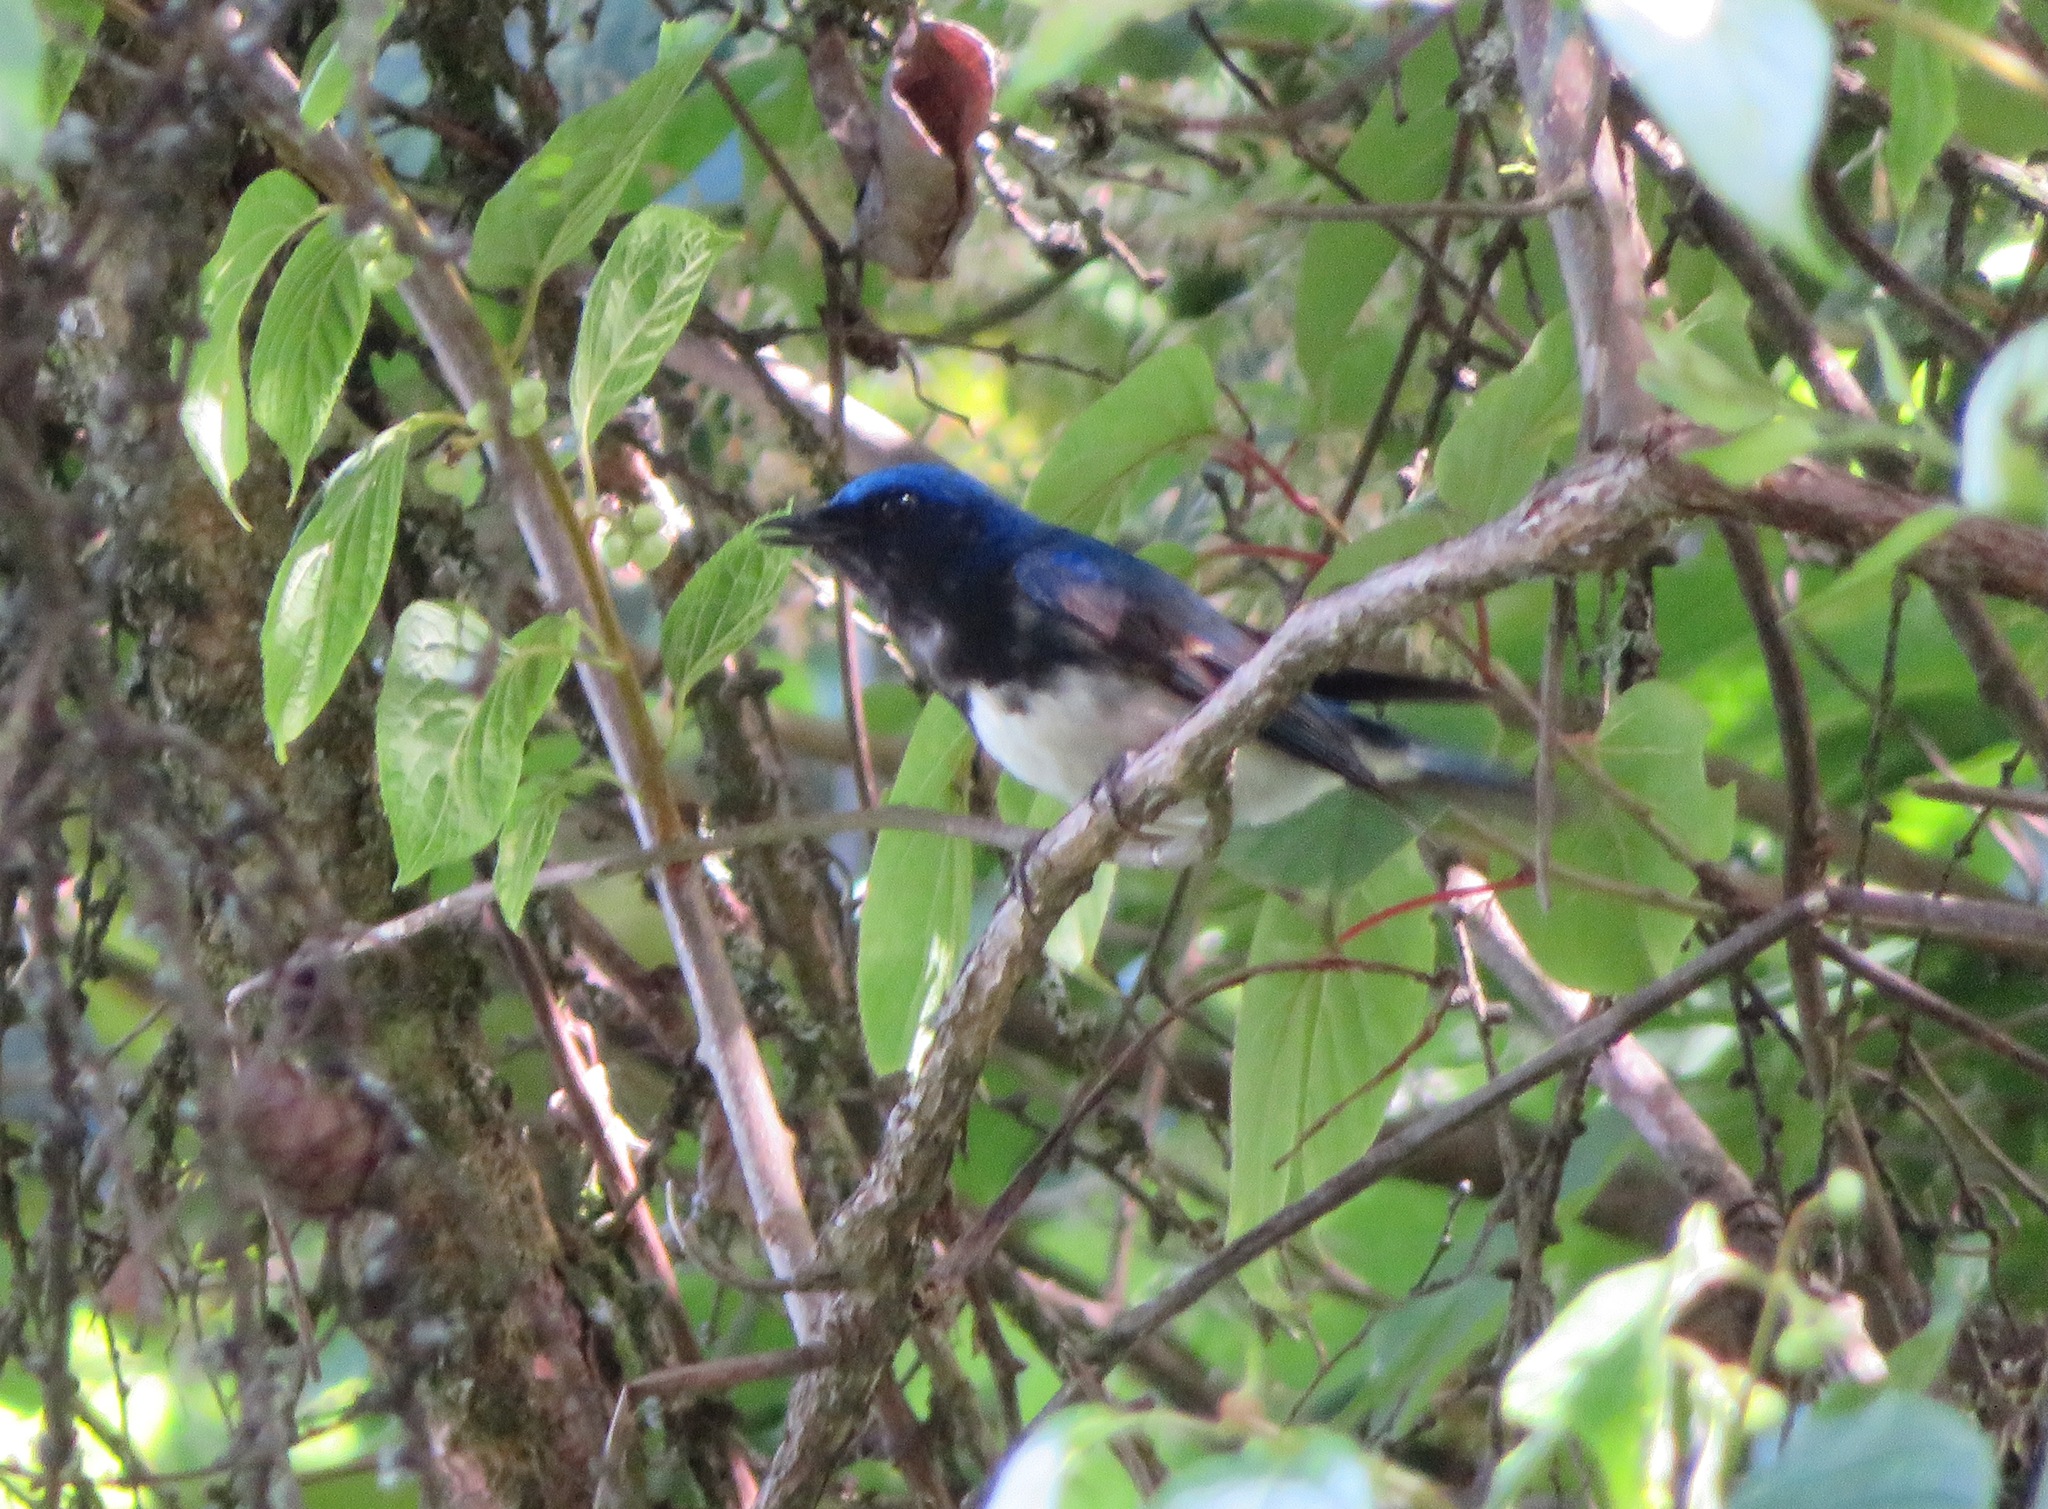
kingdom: Animalia
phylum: Chordata
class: Aves
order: Passeriformes
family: Muscicapidae
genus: Cyanoptila
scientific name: Cyanoptila cyanomelana
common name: Blue-and-white flycatcher
